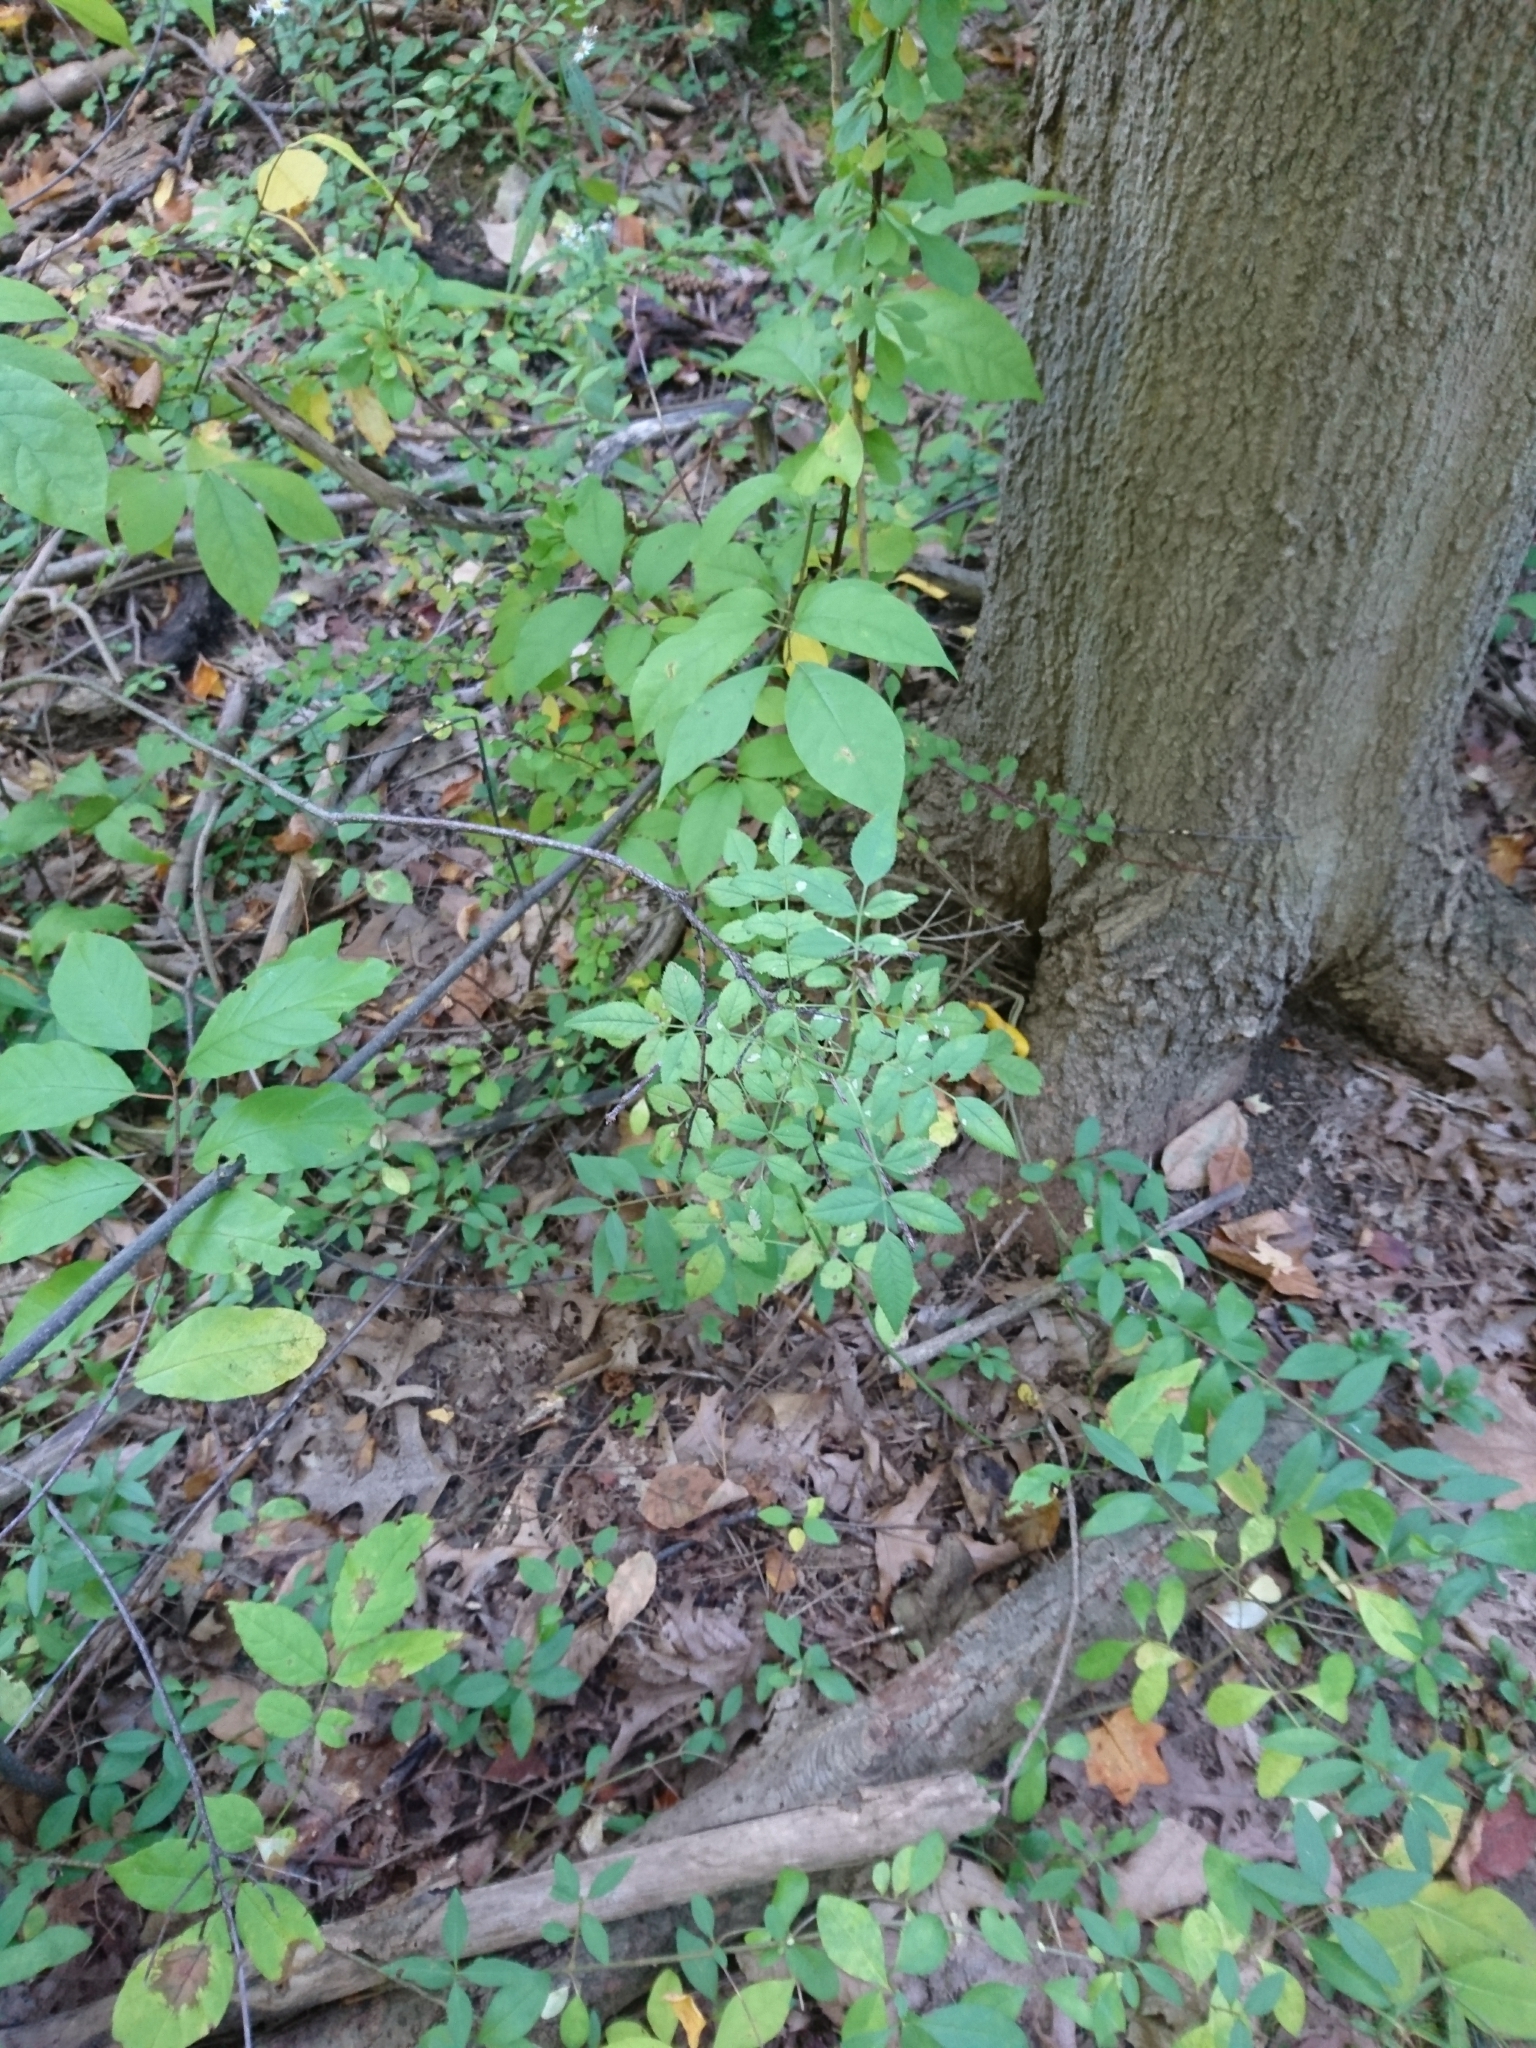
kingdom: Plantae
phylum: Tracheophyta
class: Magnoliopsida
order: Rosales
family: Rosaceae
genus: Rosa
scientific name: Rosa multiflora
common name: Multiflora rose
